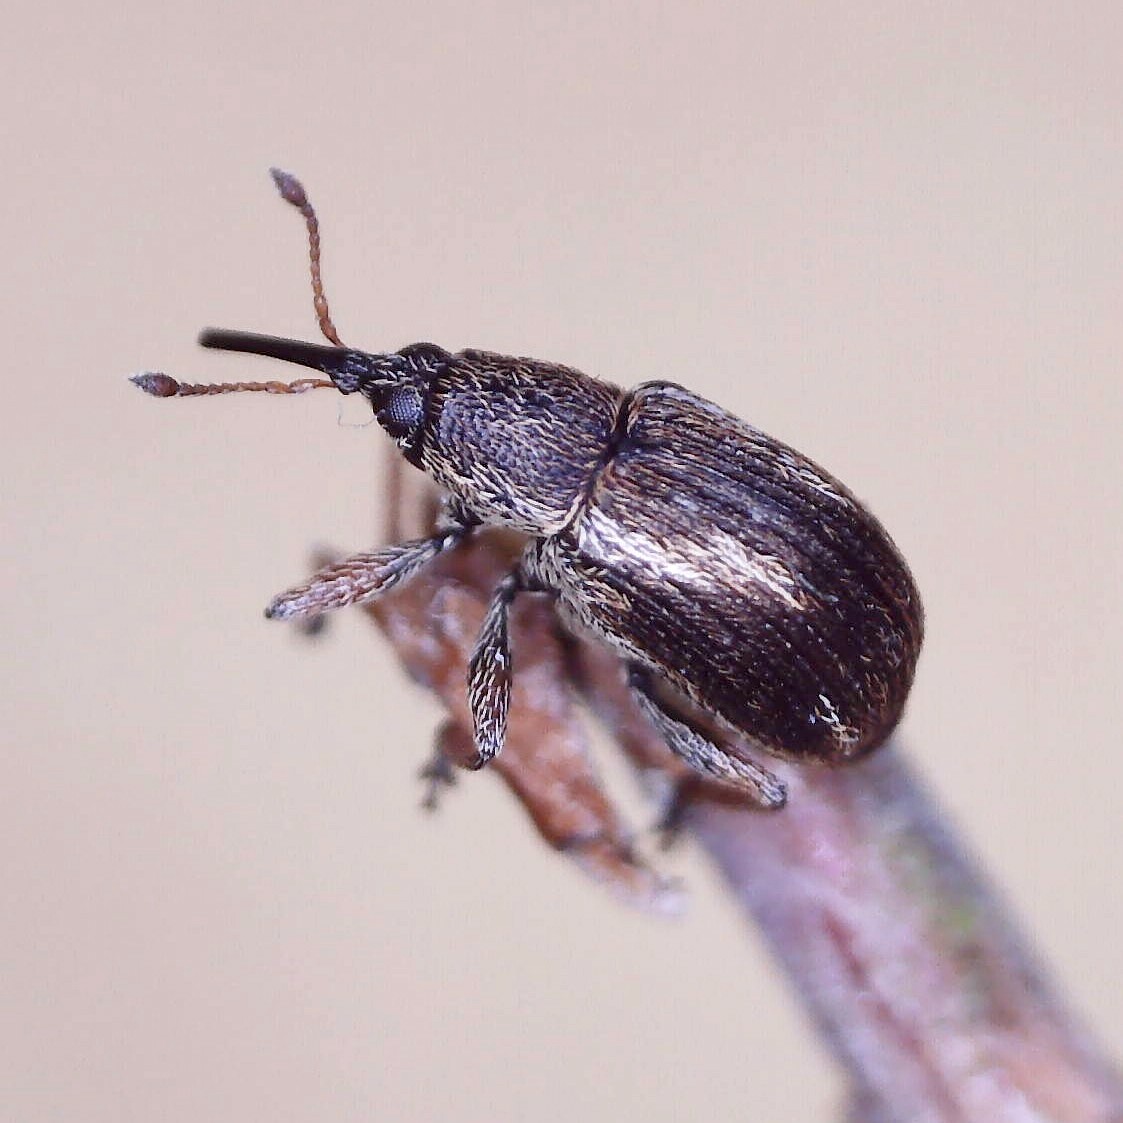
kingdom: Animalia
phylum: Arthropoda
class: Insecta
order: Coleoptera
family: Brentidae
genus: Exapion
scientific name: Exapion fuscirostre
